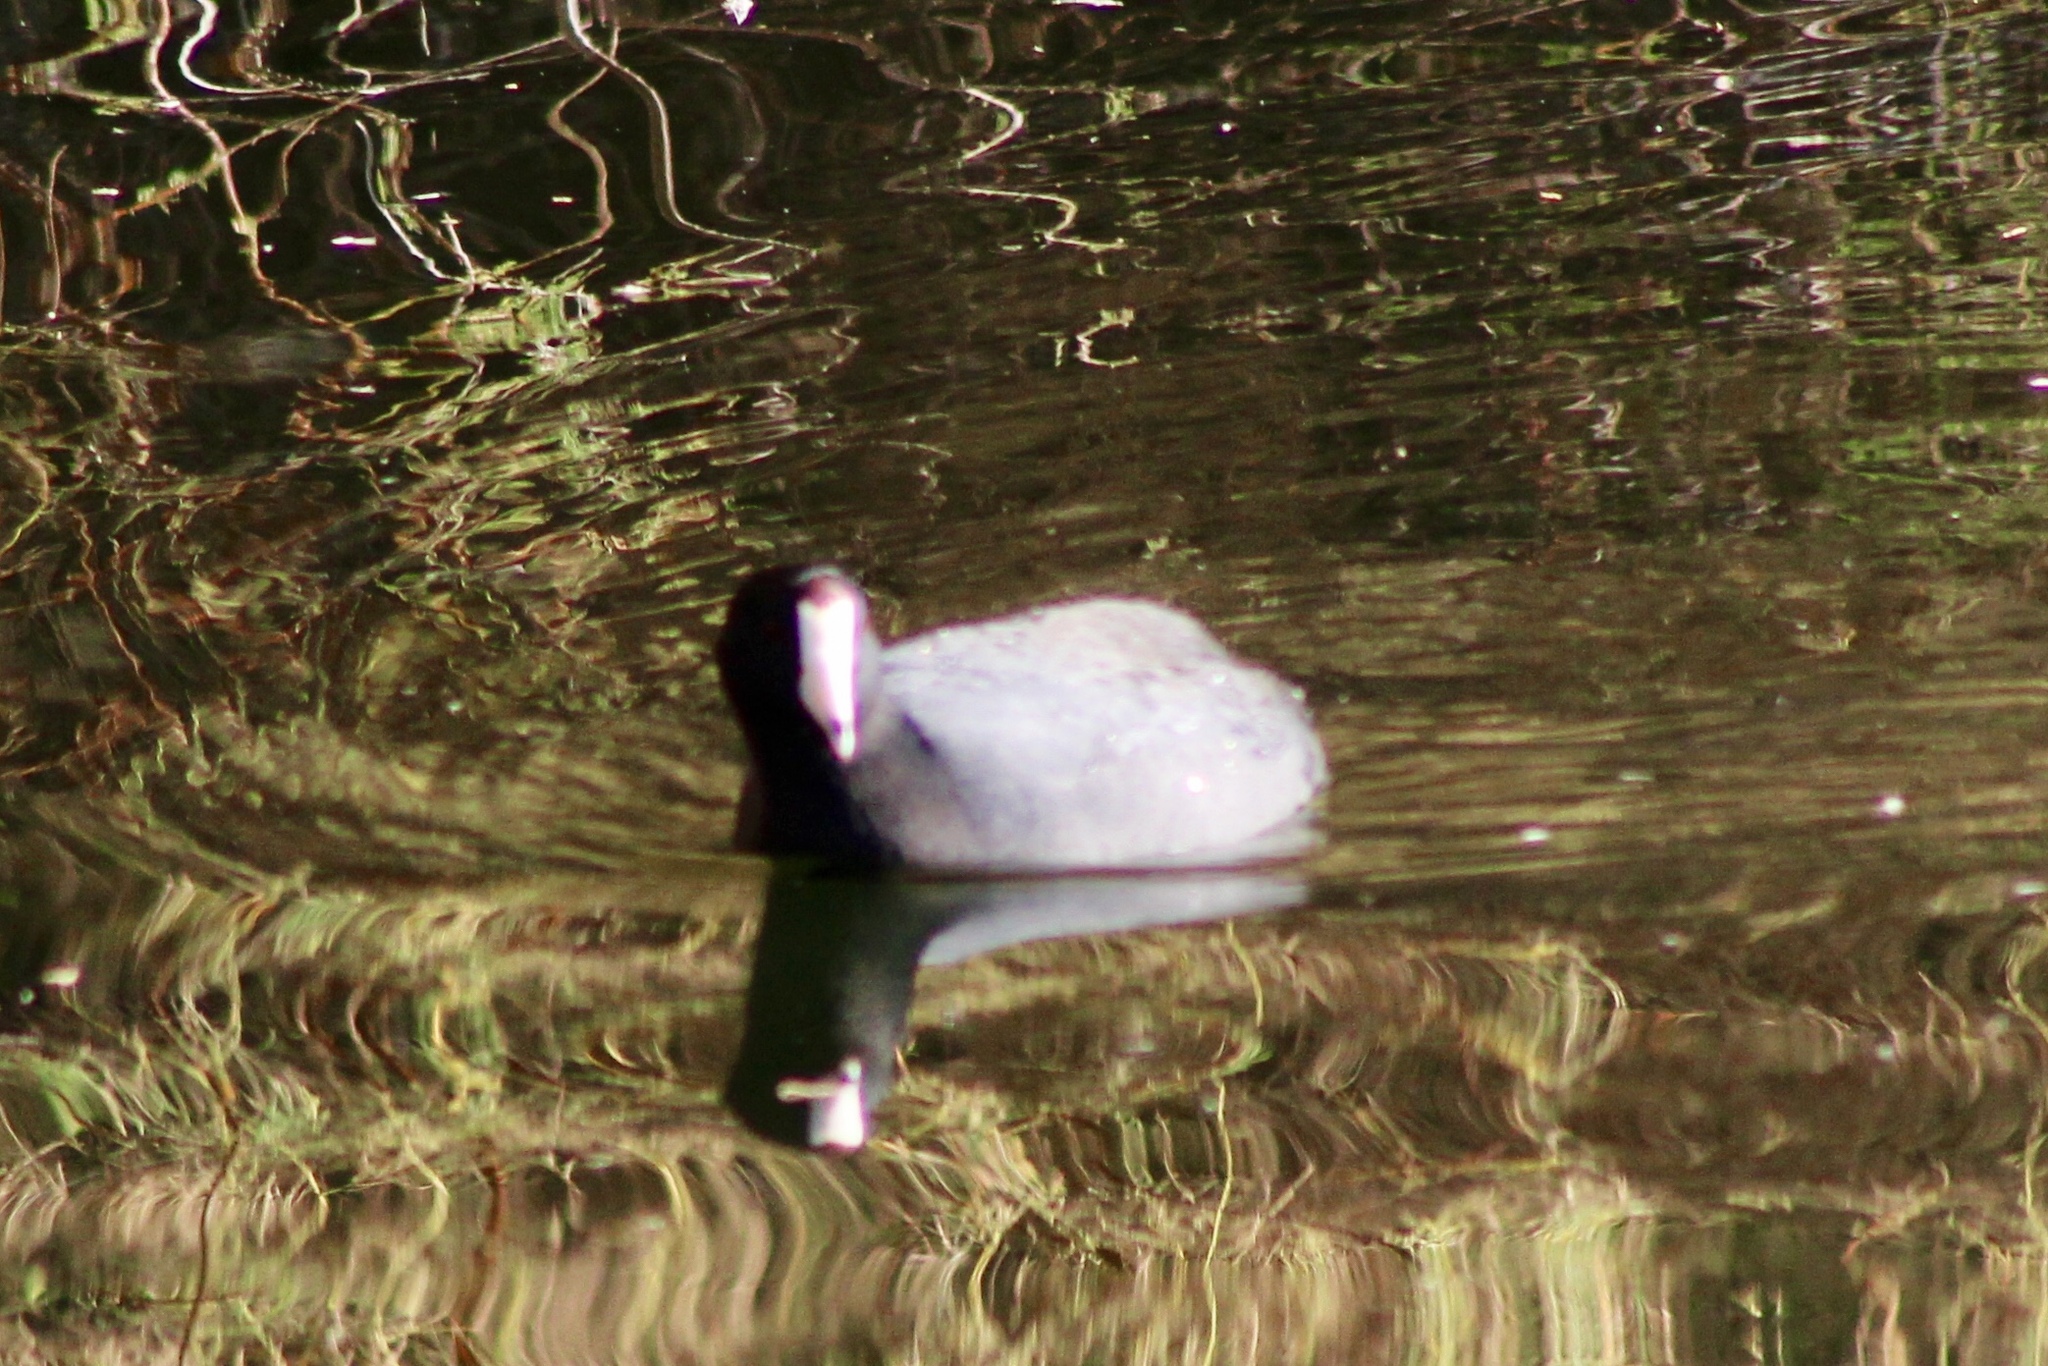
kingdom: Animalia
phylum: Chordata
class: Aves
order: Gruiformes
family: Rallidae
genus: Fulica
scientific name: Fulica americana
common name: American coot
